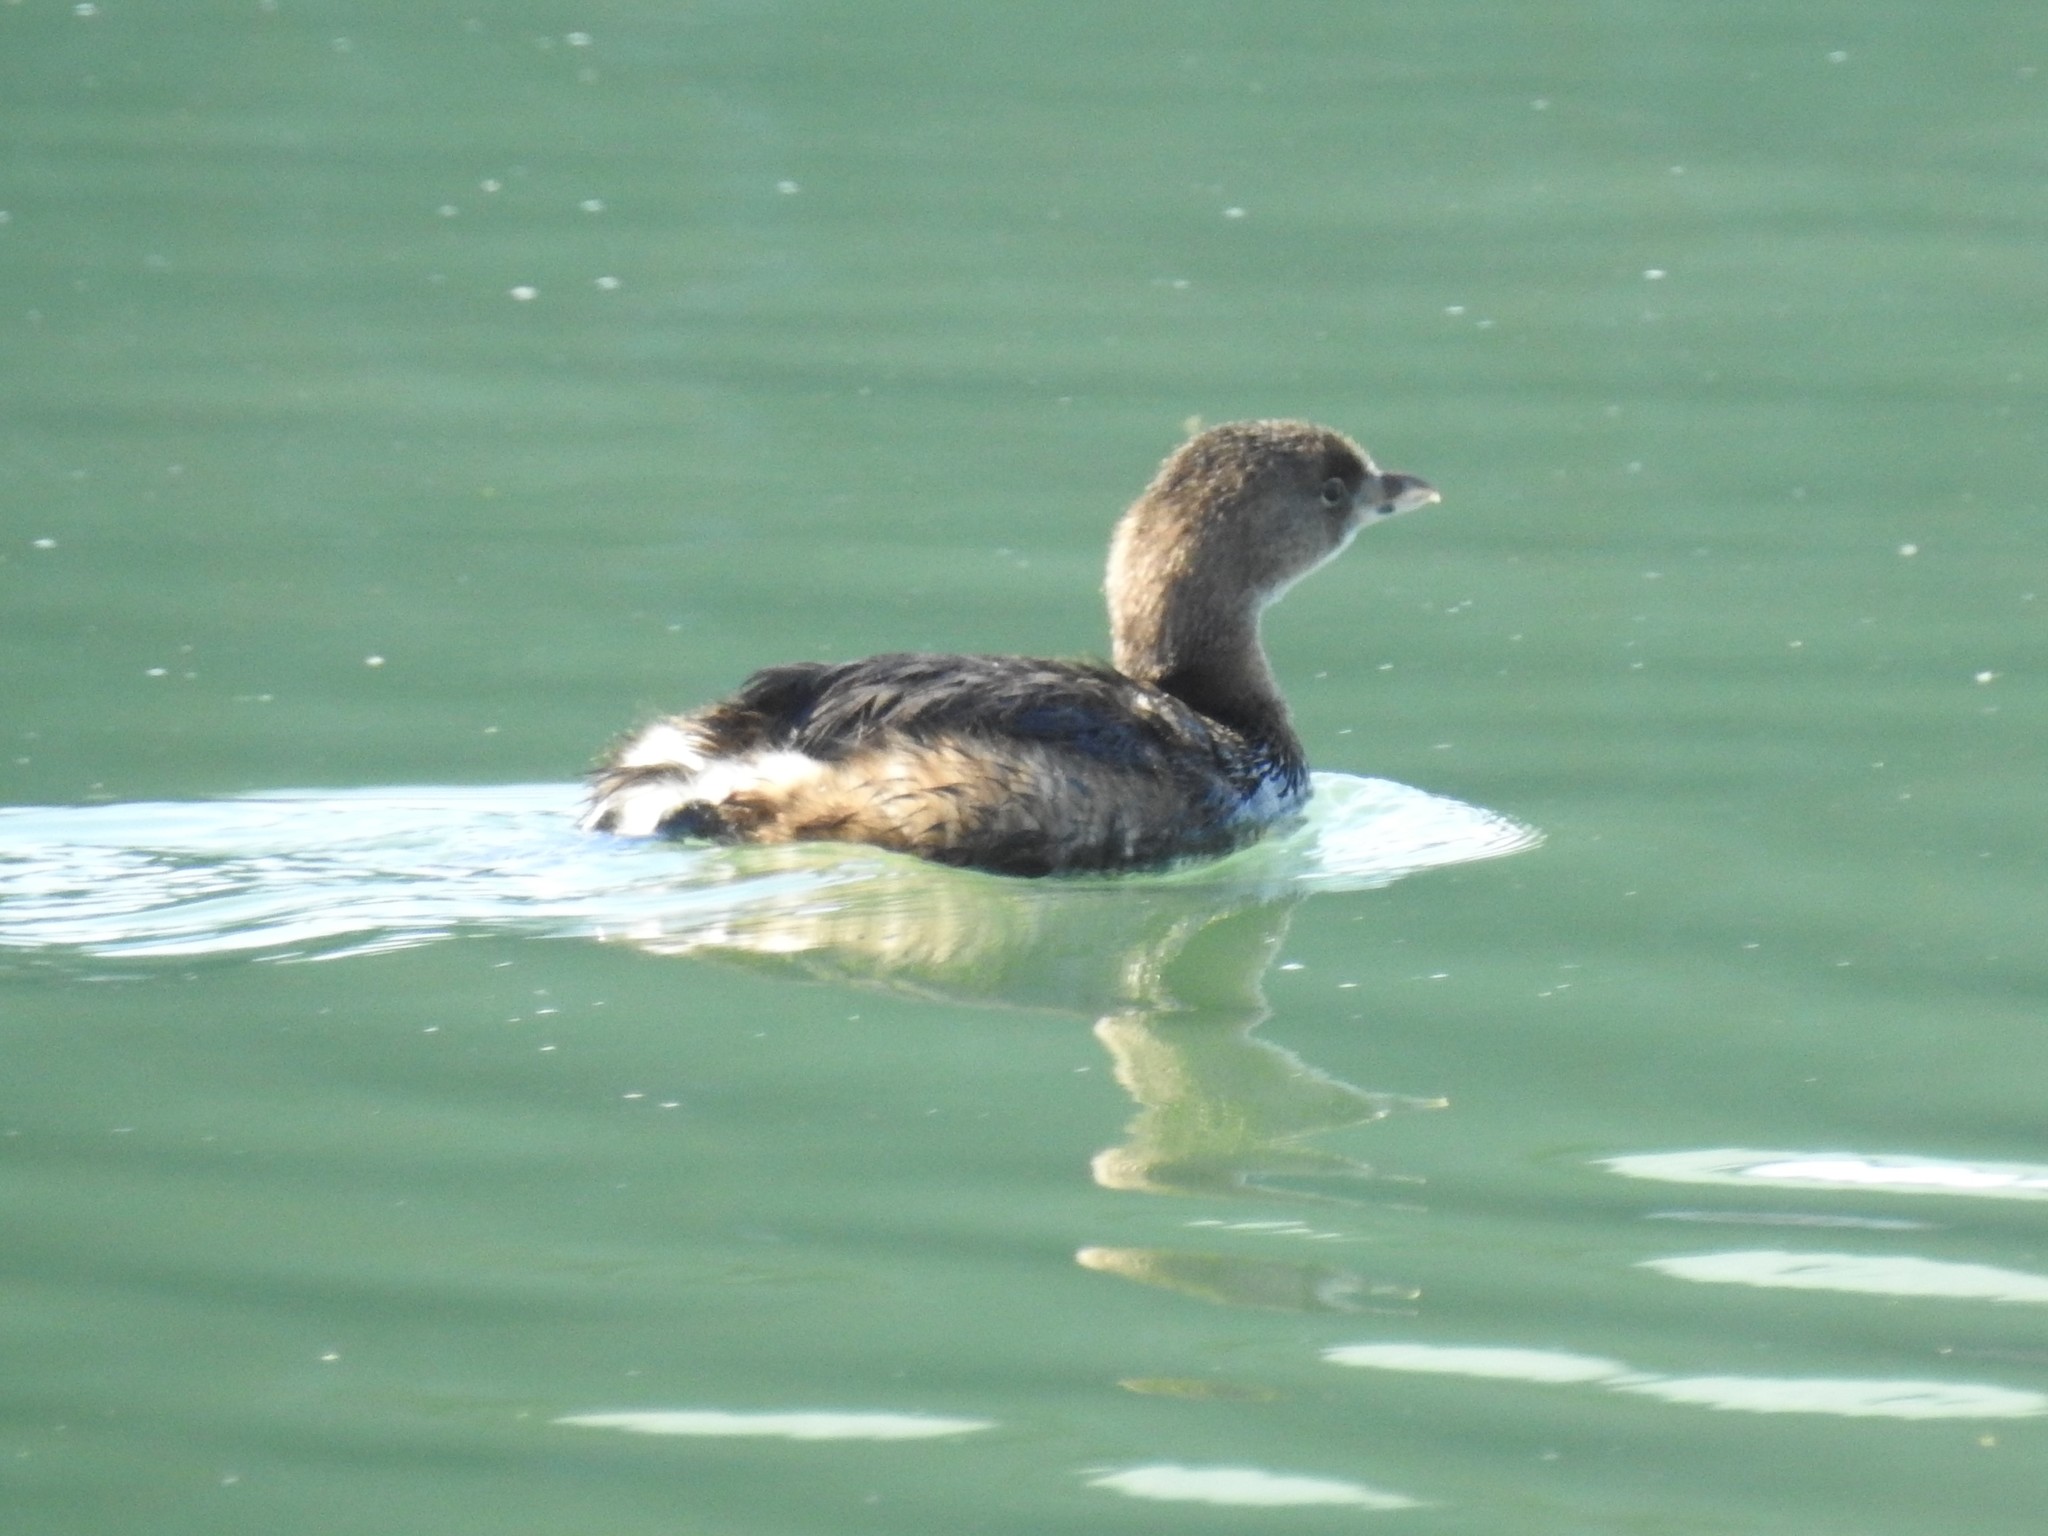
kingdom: Animalia
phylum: Chordata
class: Aves
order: Podicipediformes
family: Podicipedidae
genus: Podilymbus
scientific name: Podilymbus podiceps
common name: Pied-billed grebe
